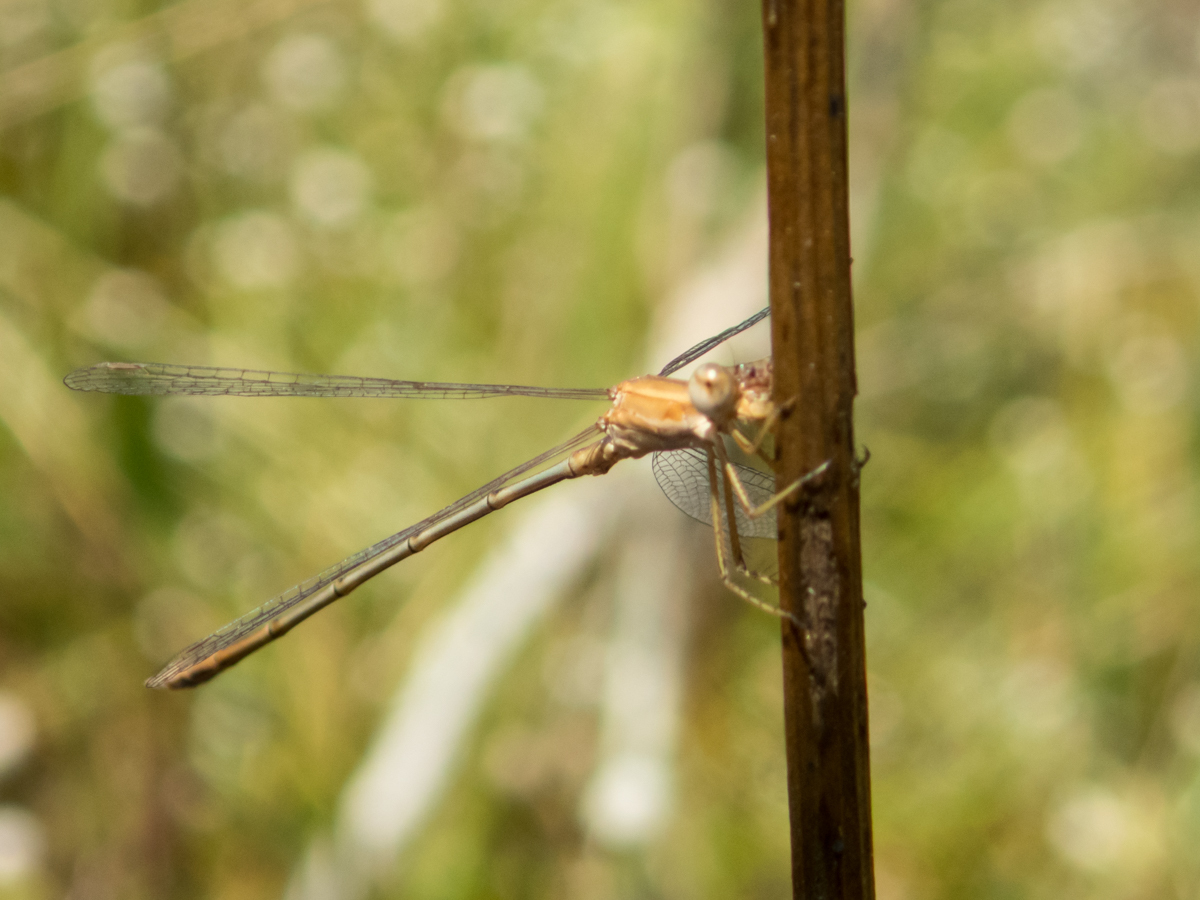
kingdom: Animalia
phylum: Arthropoda
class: Insecta
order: Odonata
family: Lestidae
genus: Lestes
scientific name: Lestes concinnus
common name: Dusky spreadwing
